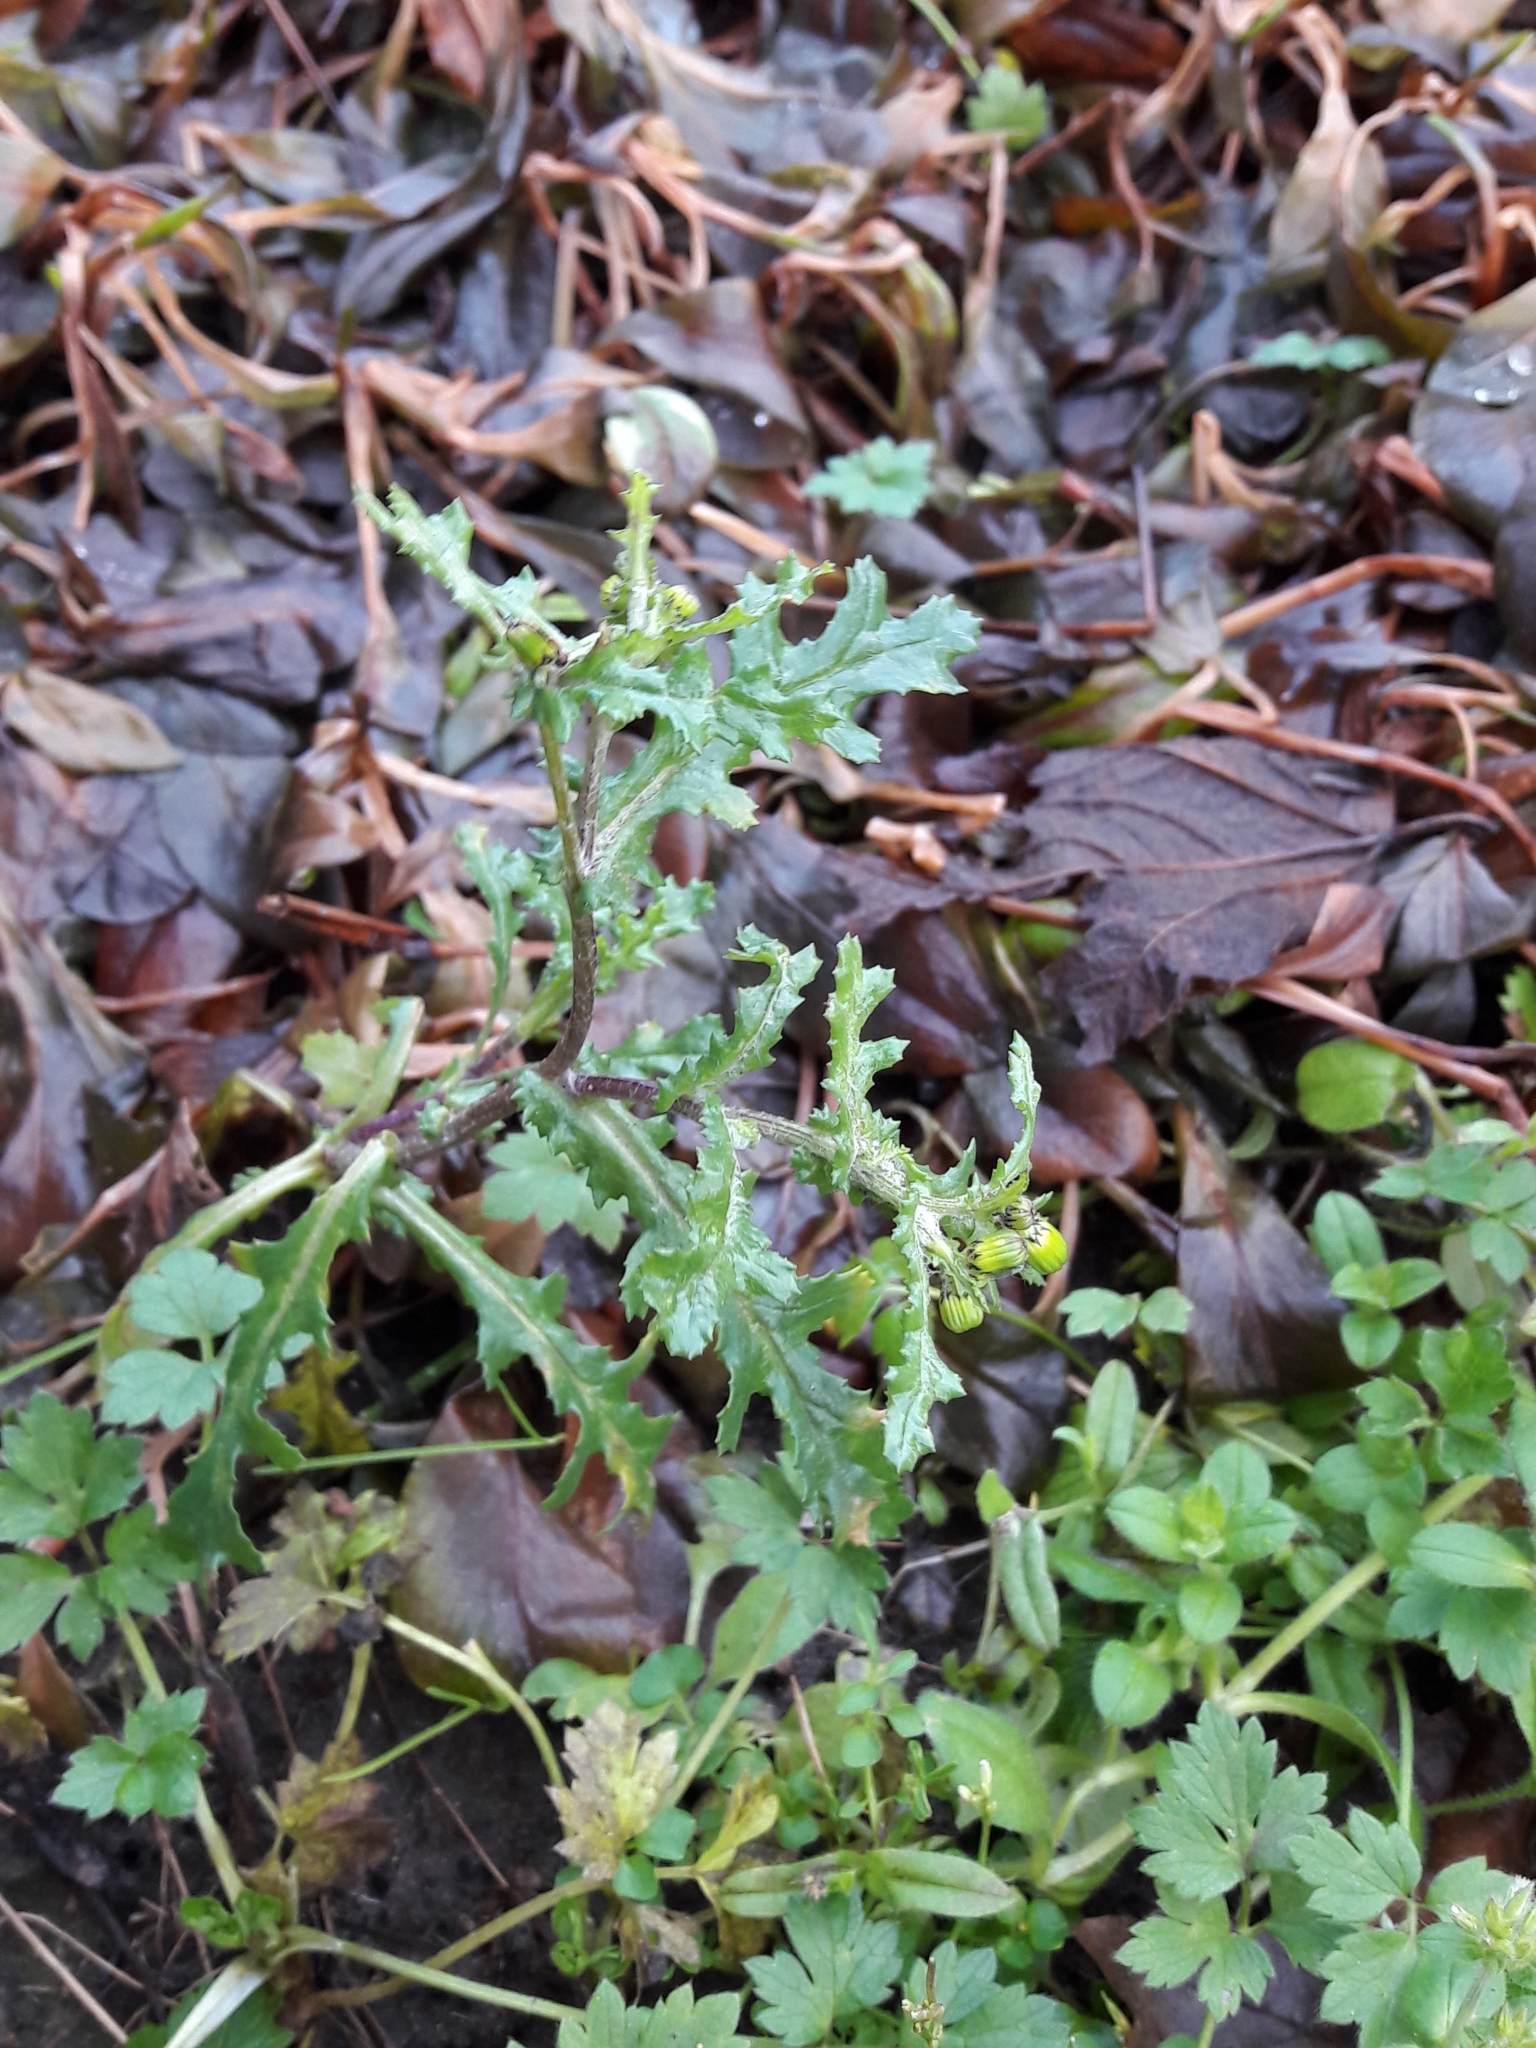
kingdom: Plantae
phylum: Tracheophyta
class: Magnoliopsida
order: Asterales
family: Asteraceae
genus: Senecio
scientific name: Senecio vulgaris
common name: Old-man-in-the-spring
